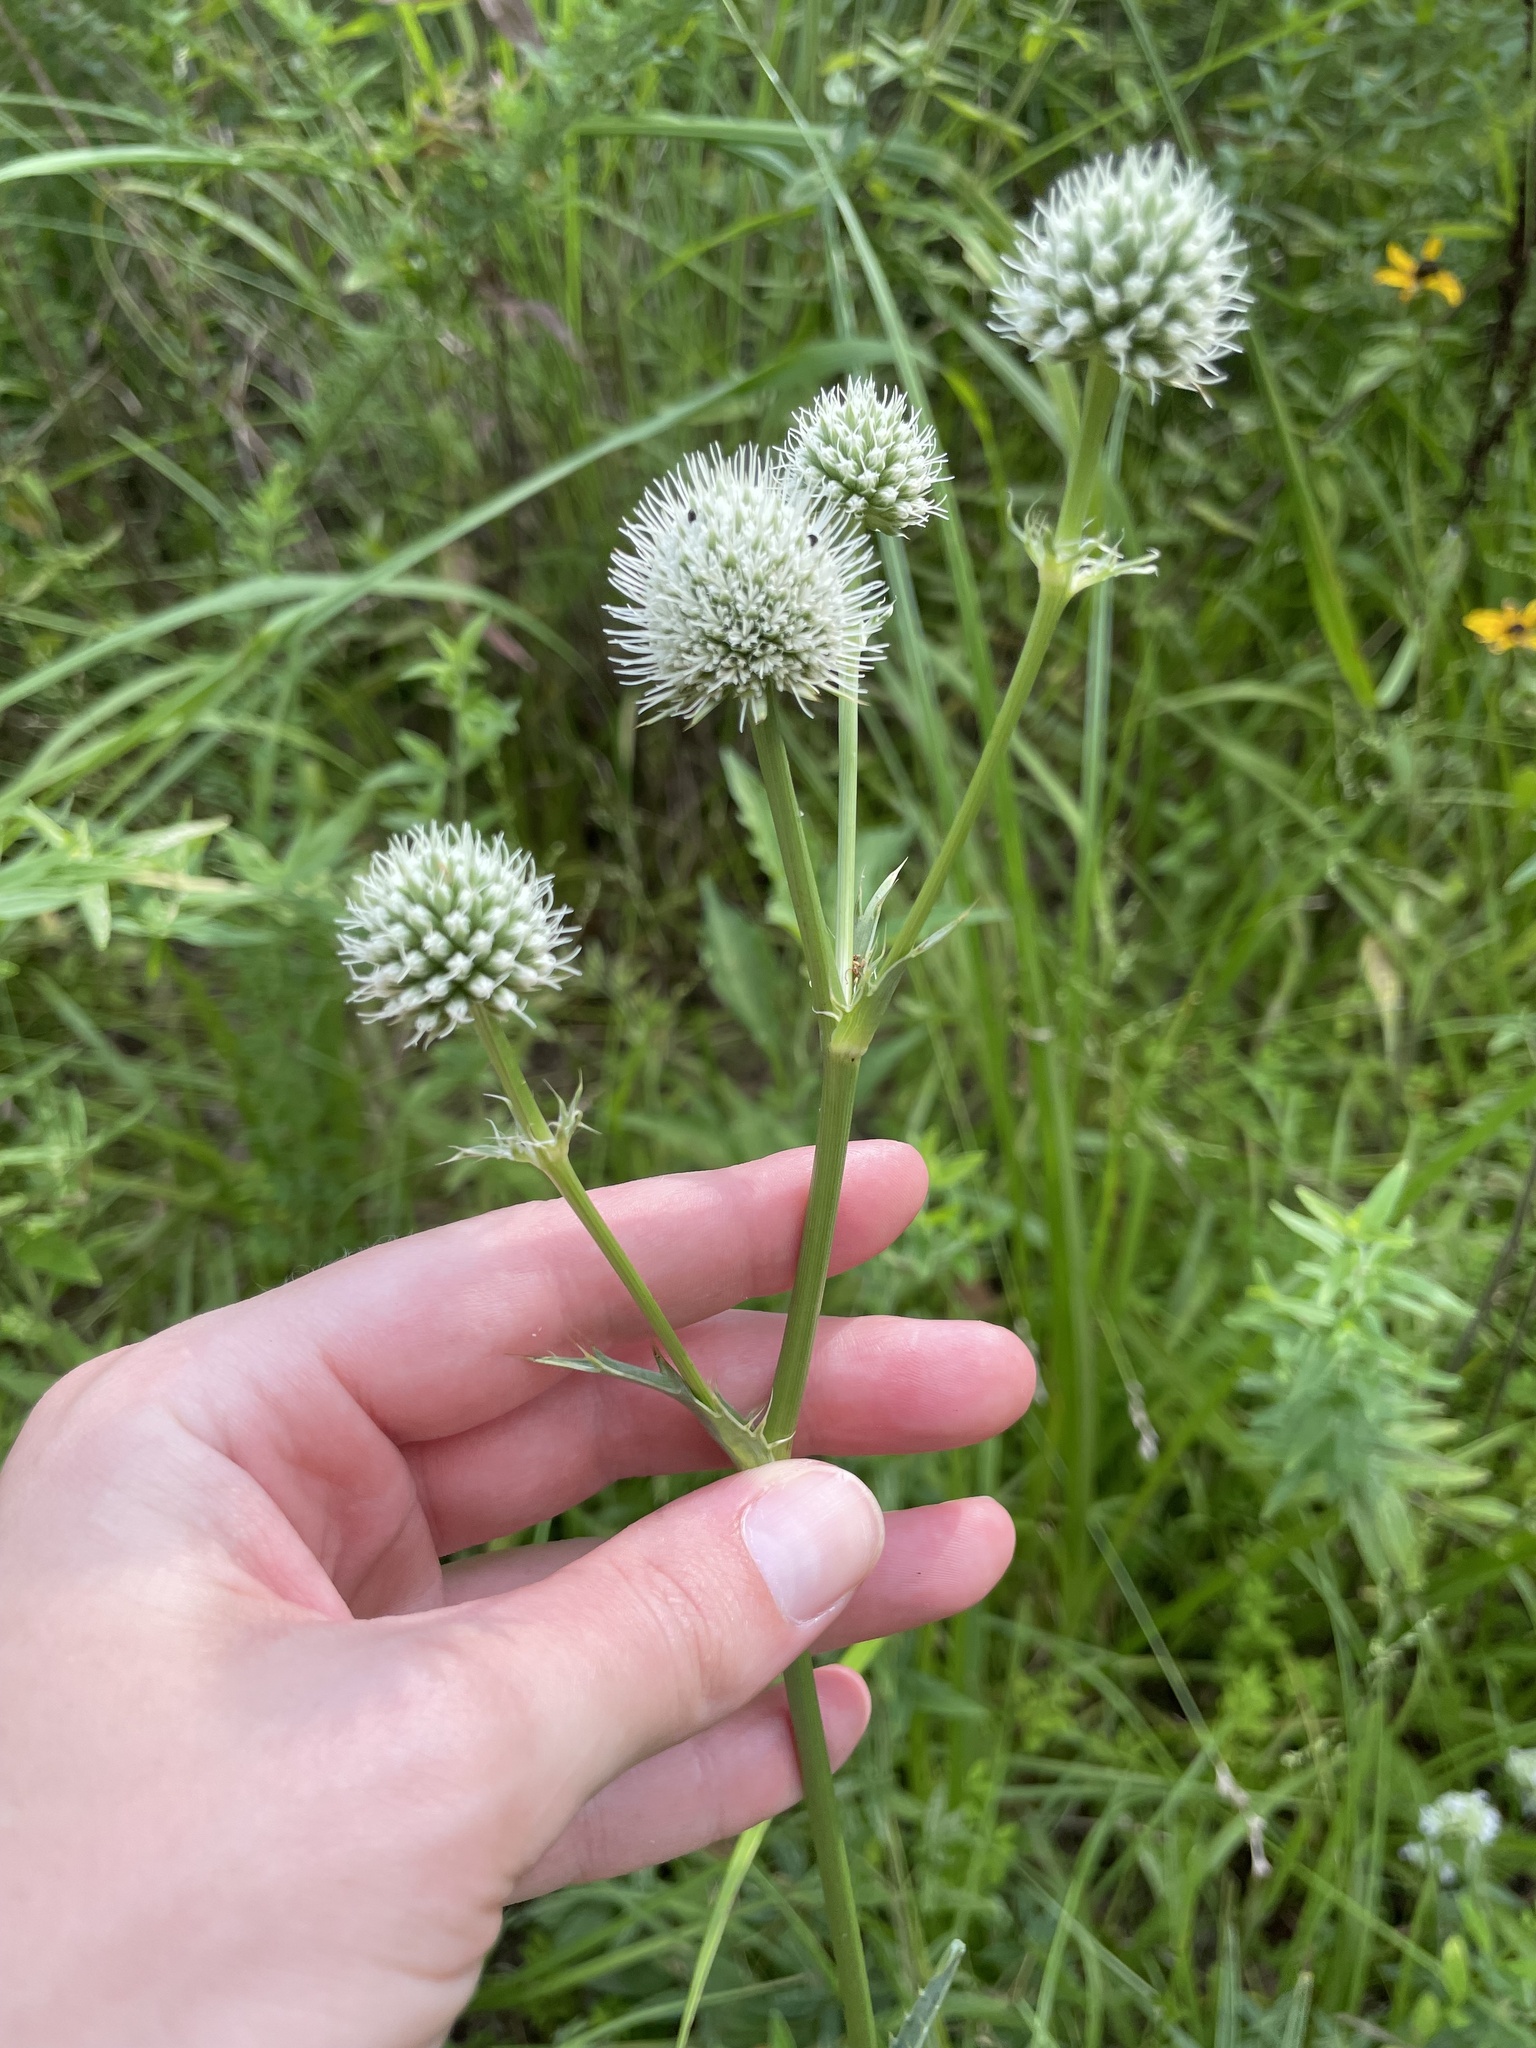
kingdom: Plantae
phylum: Tracheophyta
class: Magnoliopsida
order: Apiales
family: Apiaceae
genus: Eryngium
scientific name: Eryngium yuccifolium
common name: Button eryngo
